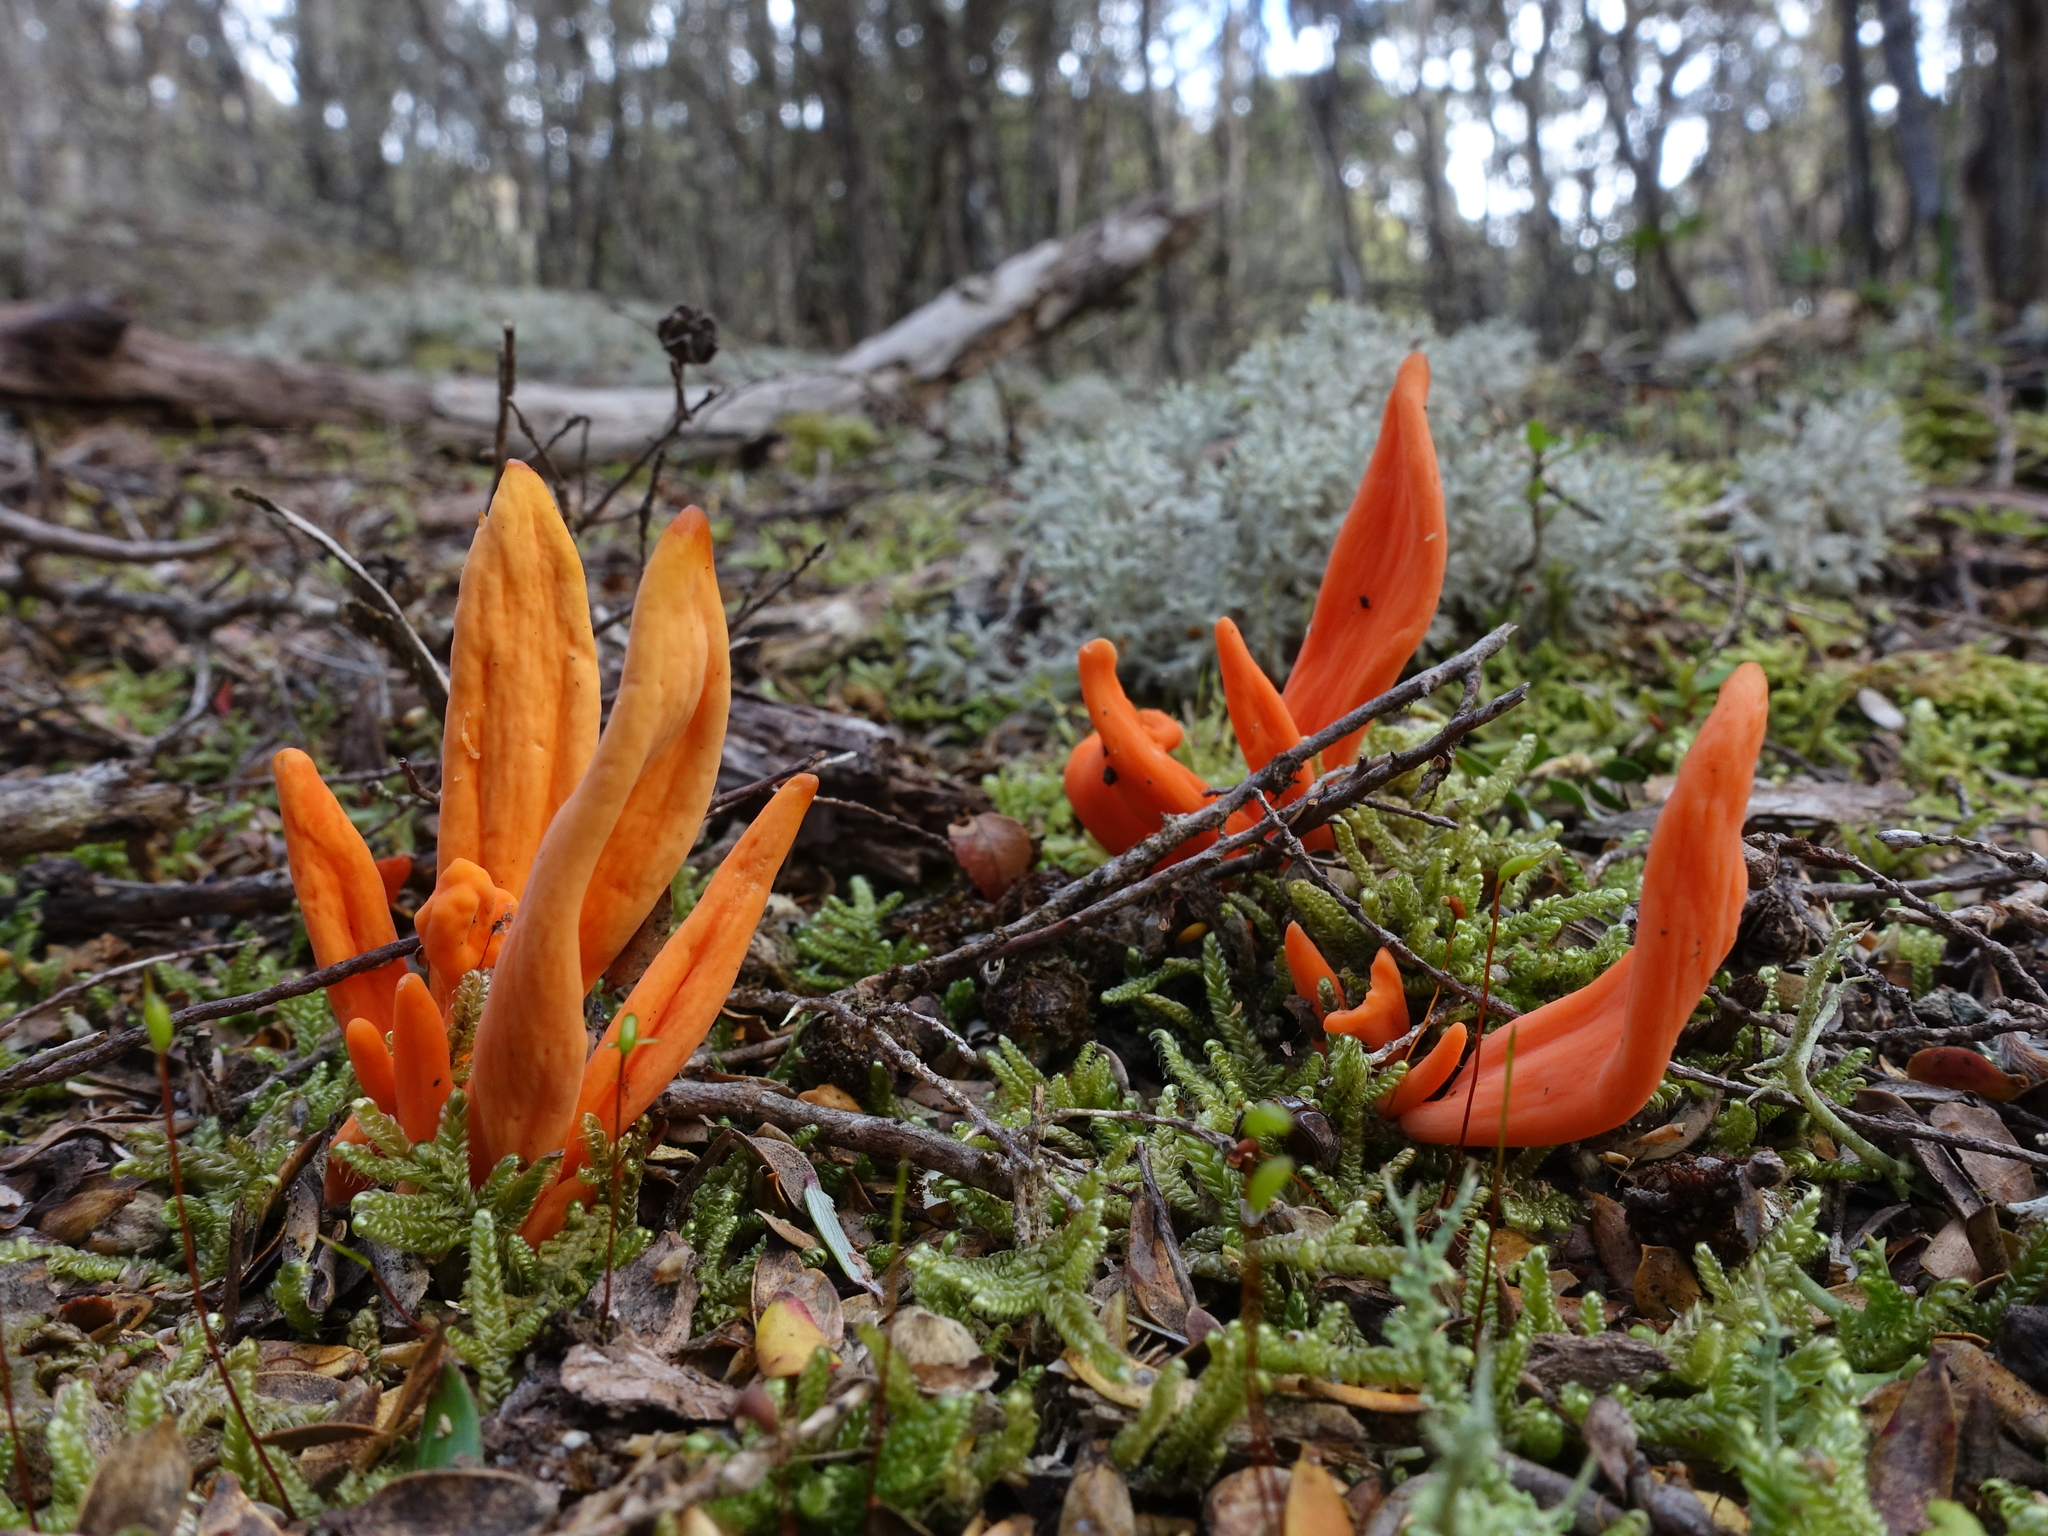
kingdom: Fungi
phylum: Basidiomycota
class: Agaricomycetes
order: Agaricales
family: Clavariaceae
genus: Clavulinopsis
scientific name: Clavulinopsis sulcata
